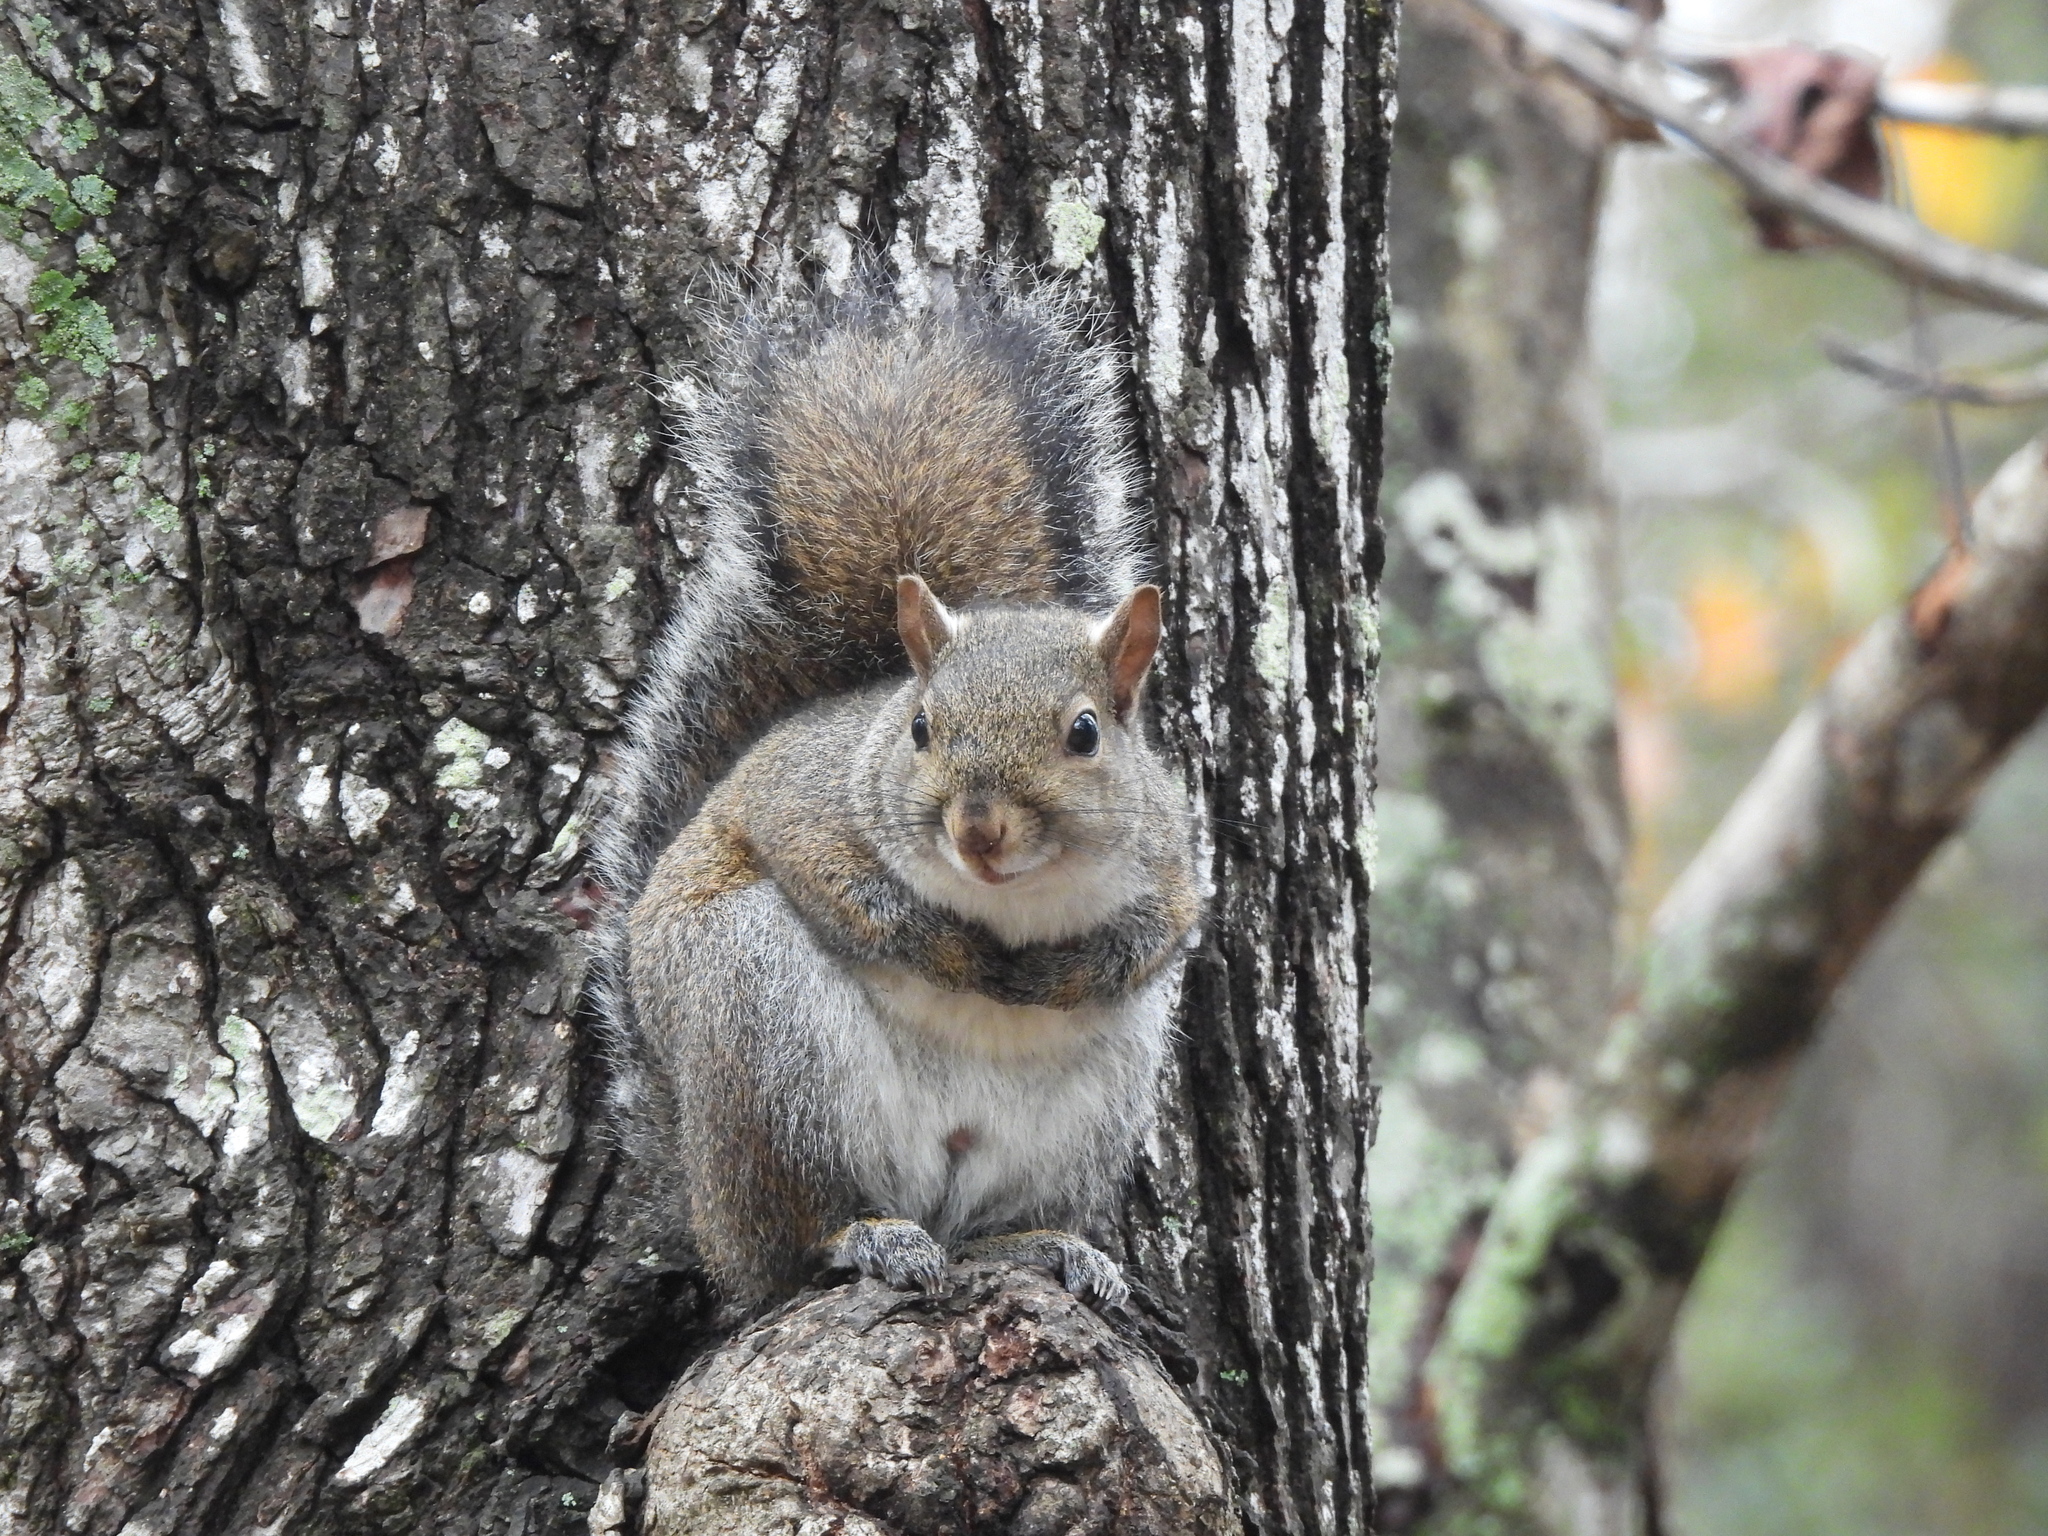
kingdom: Animalia
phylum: Chordata
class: Mammalia
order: Rodentia
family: Sciuridae
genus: Sciurus
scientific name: Sciurus carolinensis
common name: Eastern gray squirrel
